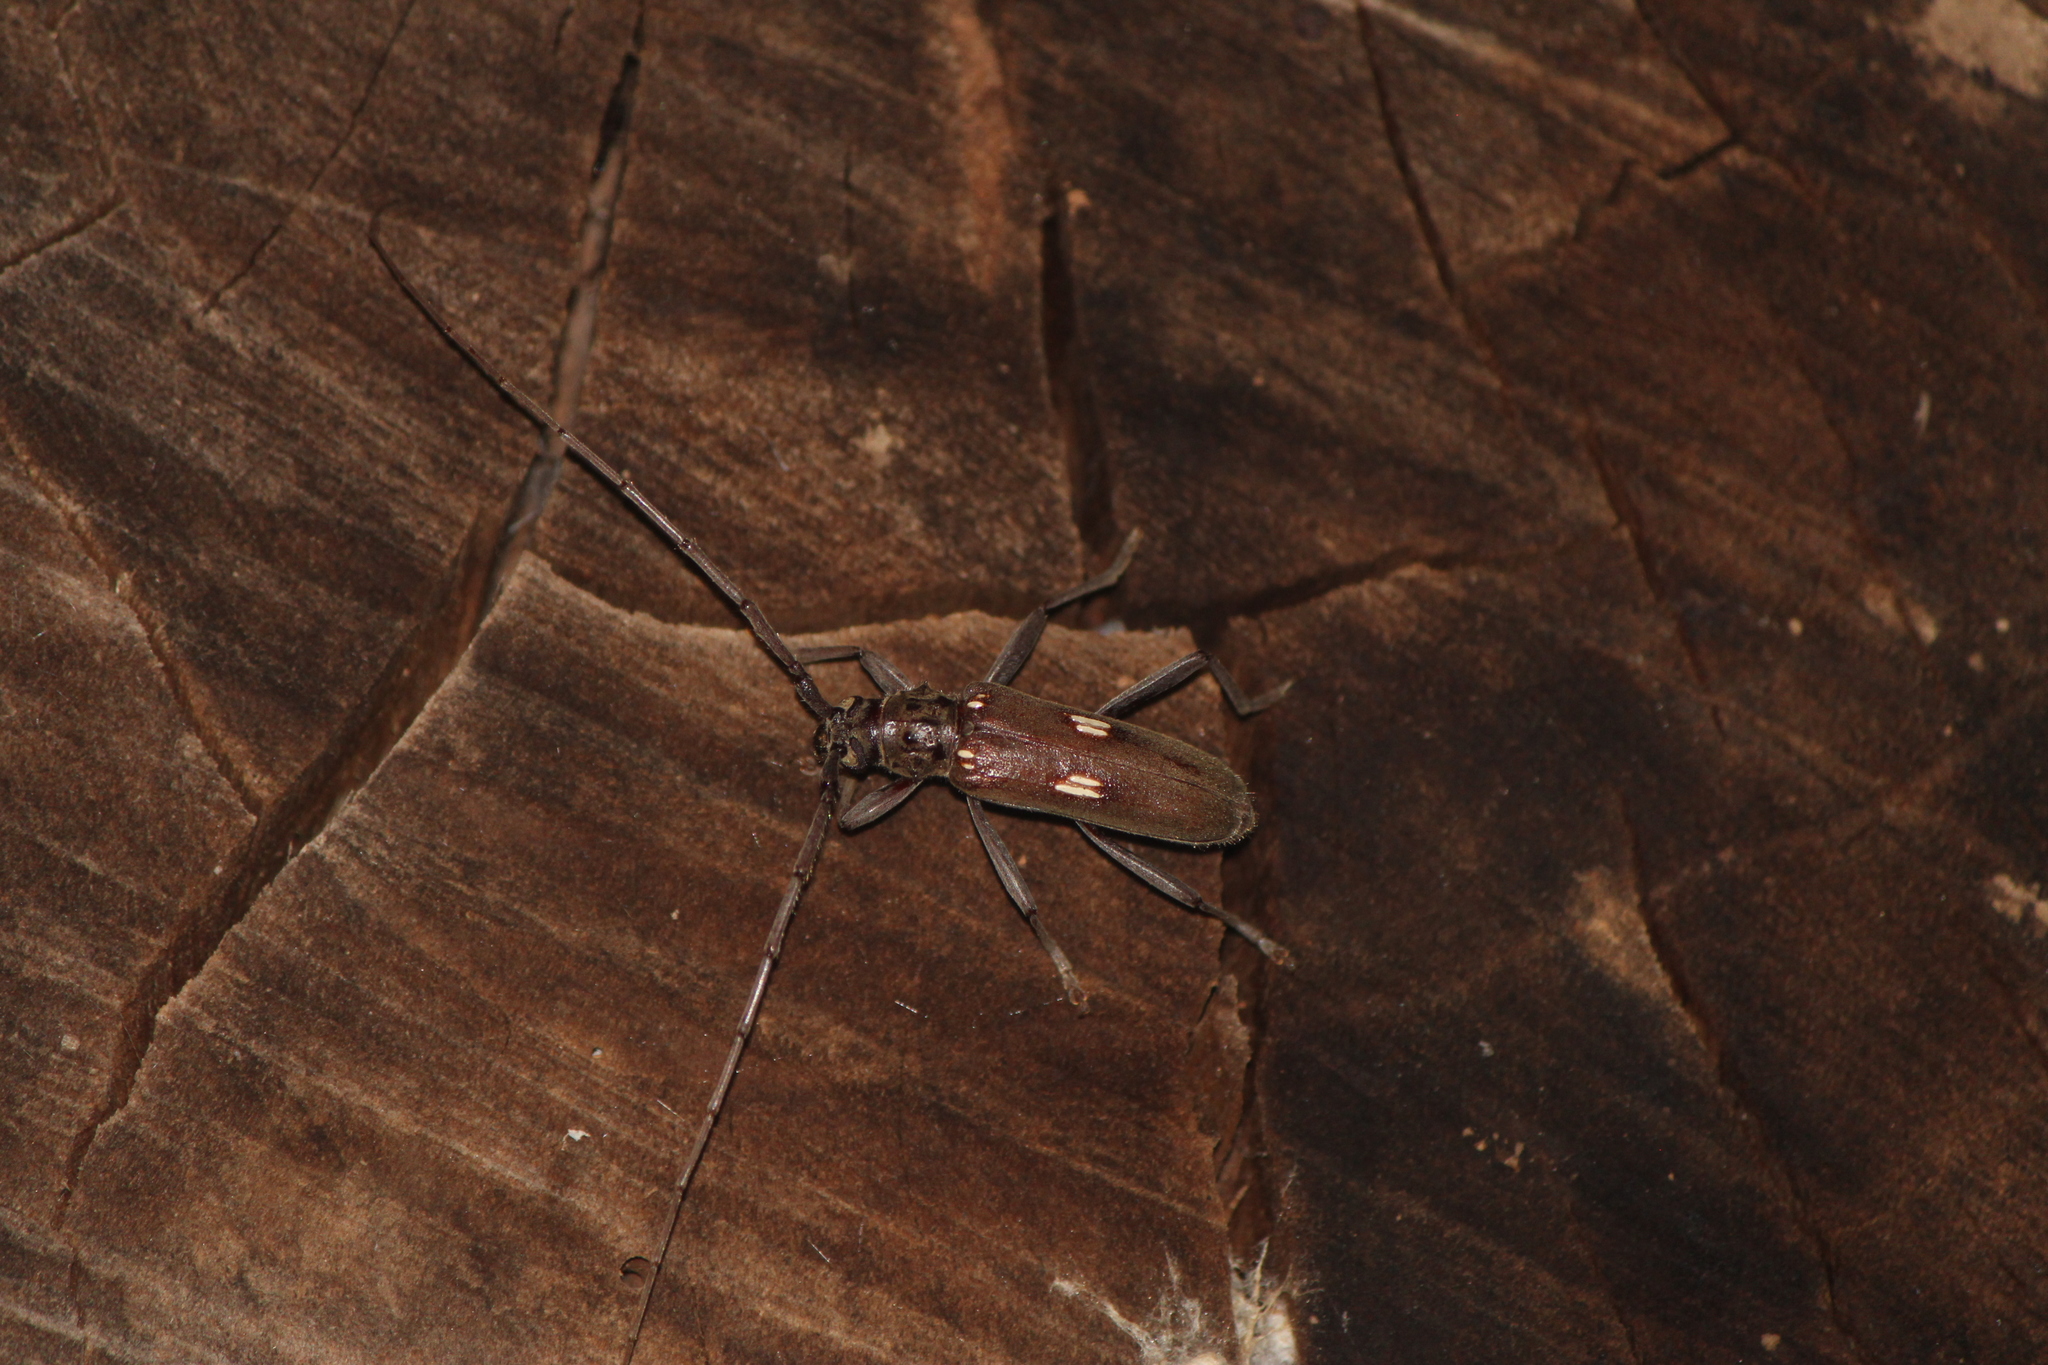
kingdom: Animalia
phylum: Arthropoda
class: Insecta
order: Coleoptera
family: Cerambycidae
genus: Susuacanga
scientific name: Susuacanga rotundipenne
